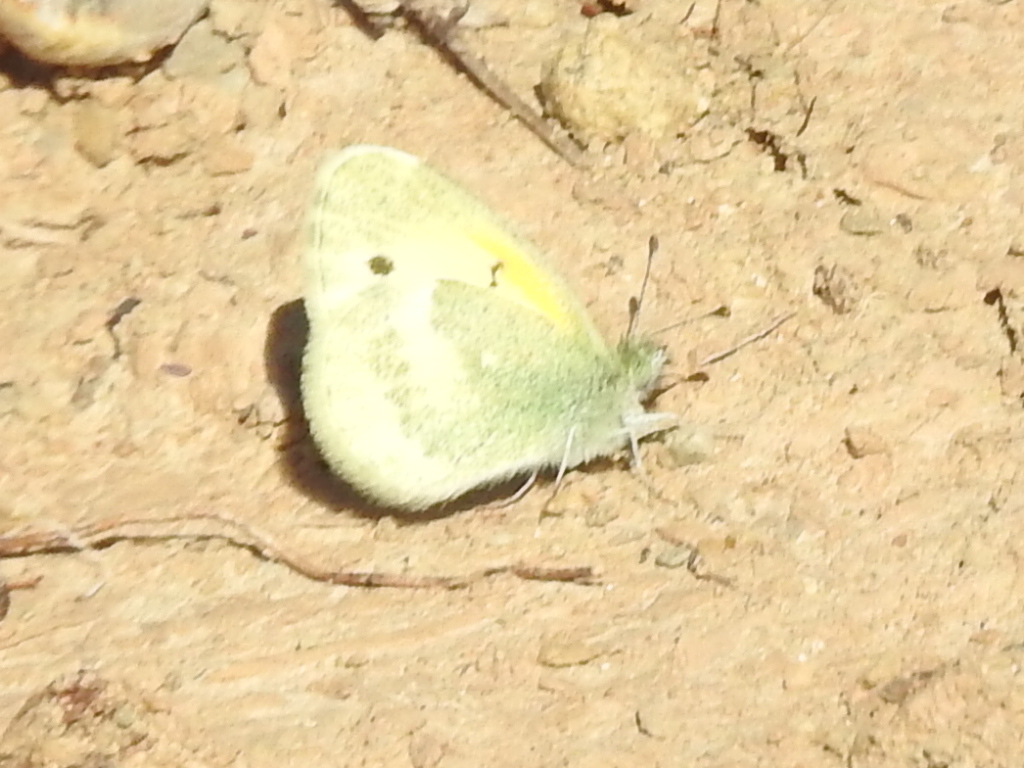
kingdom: Animalia
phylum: Arthropoda
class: Insecta
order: Lepidoptera
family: Pieridae
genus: Nathalis
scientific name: Nathalis iole
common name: Dainty sulphur
